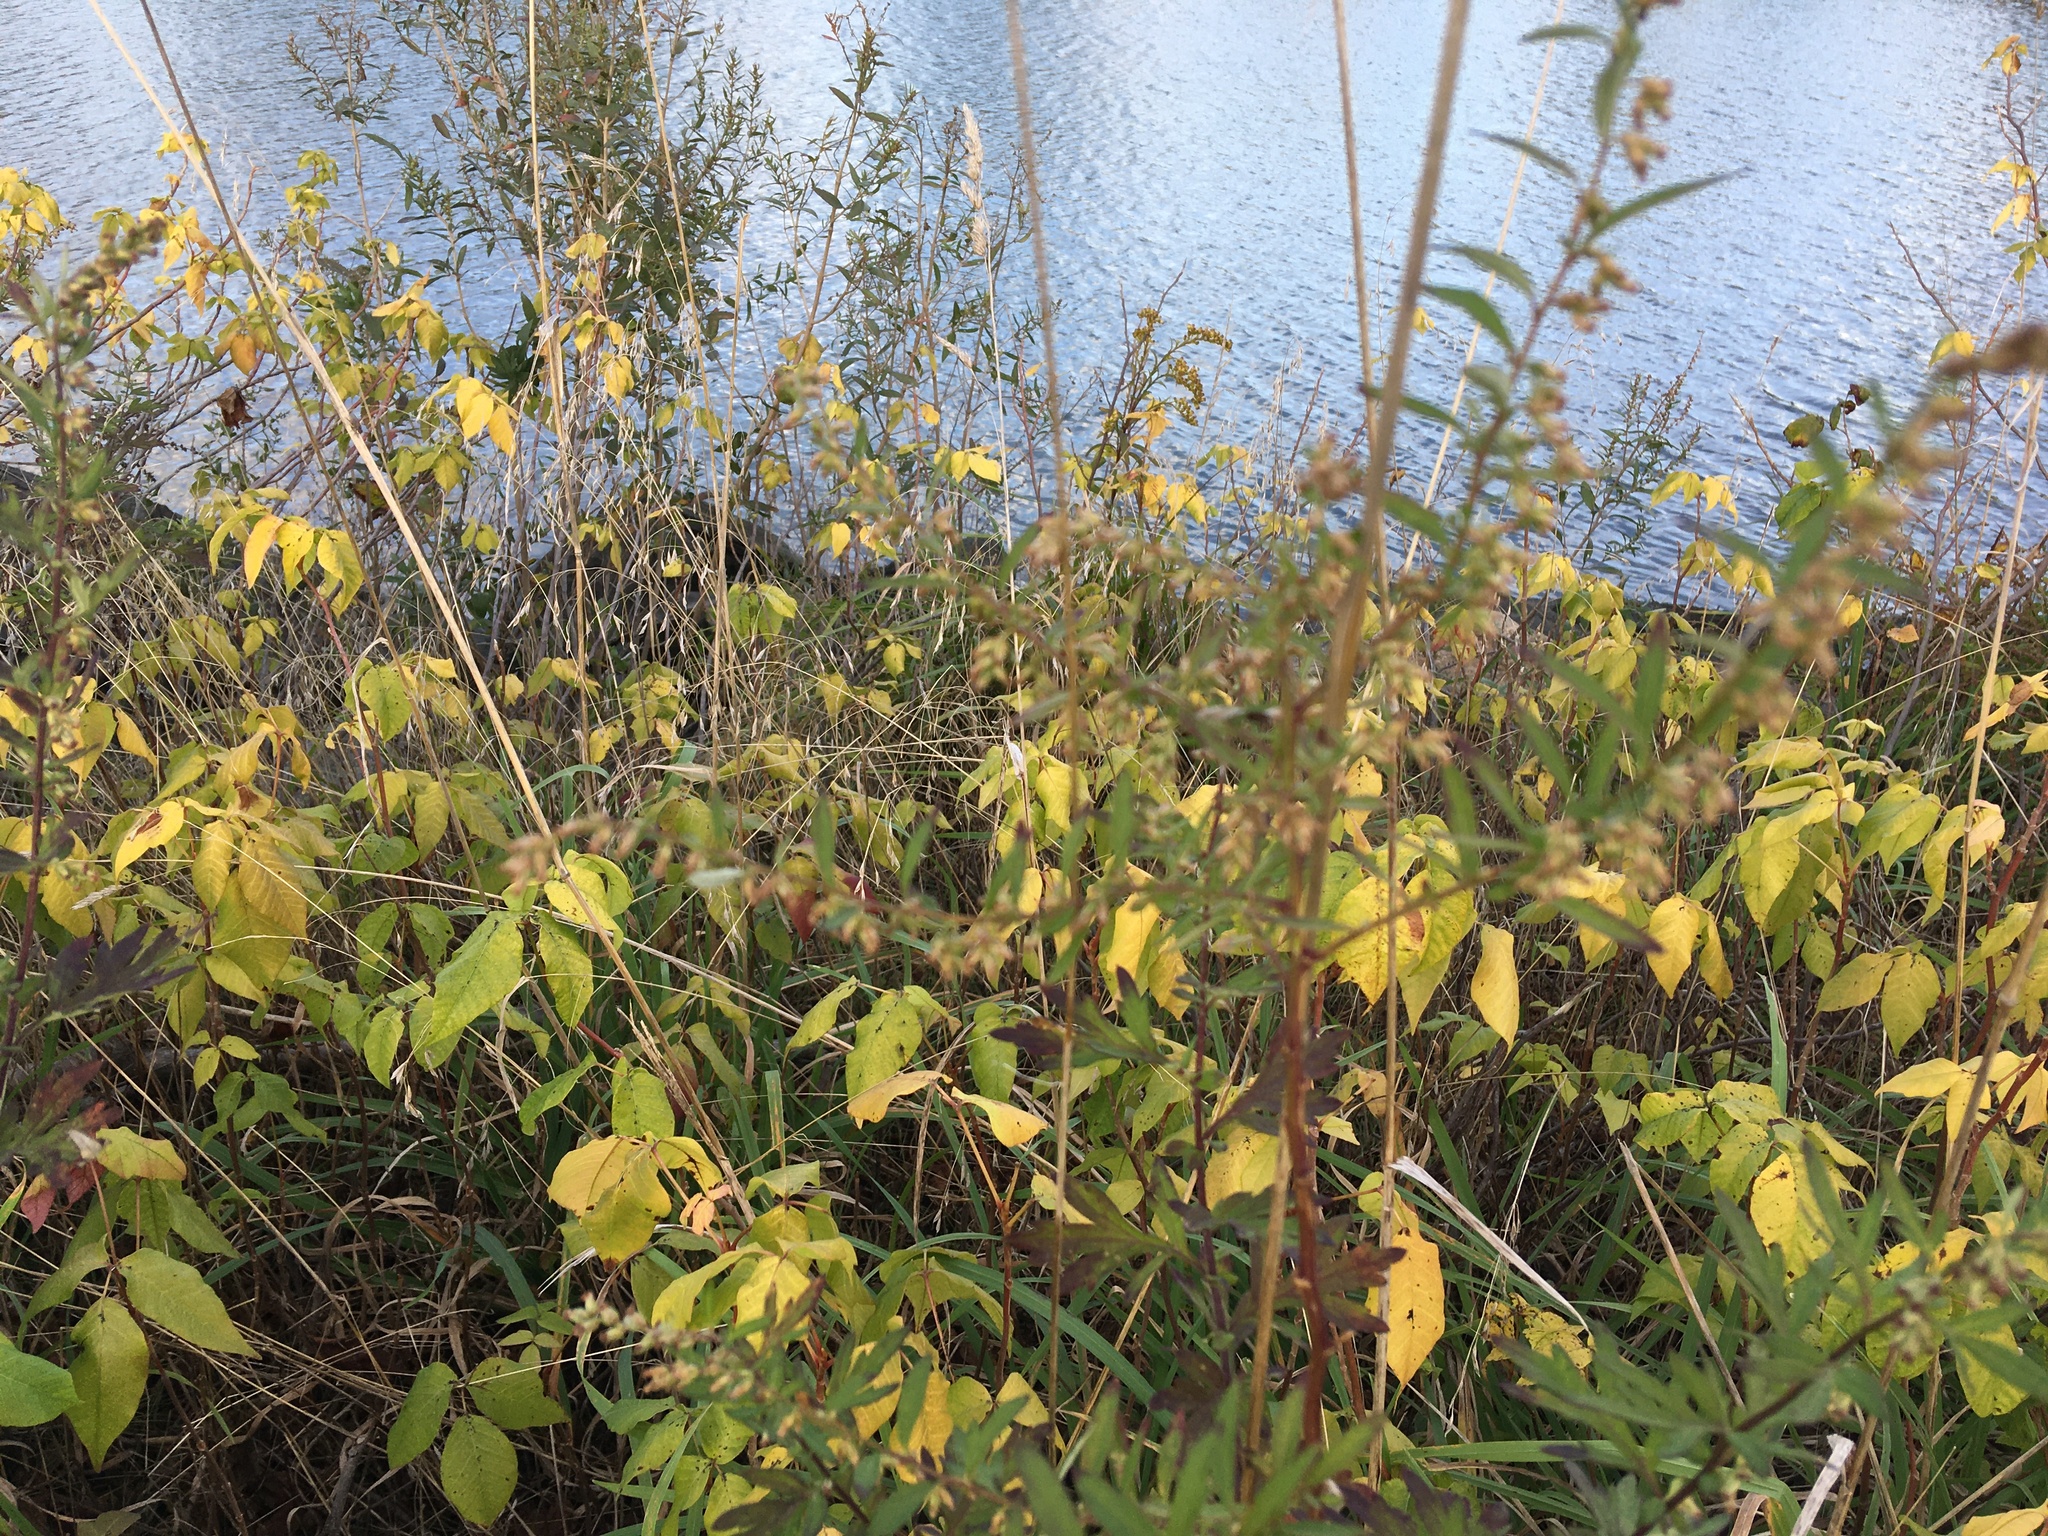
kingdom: Plantae
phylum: Tracheophyta
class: Magnoliopsida
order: Asterales
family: Asteraceae
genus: Artemisia
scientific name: Artemisia vulgaris
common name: Mugwort
